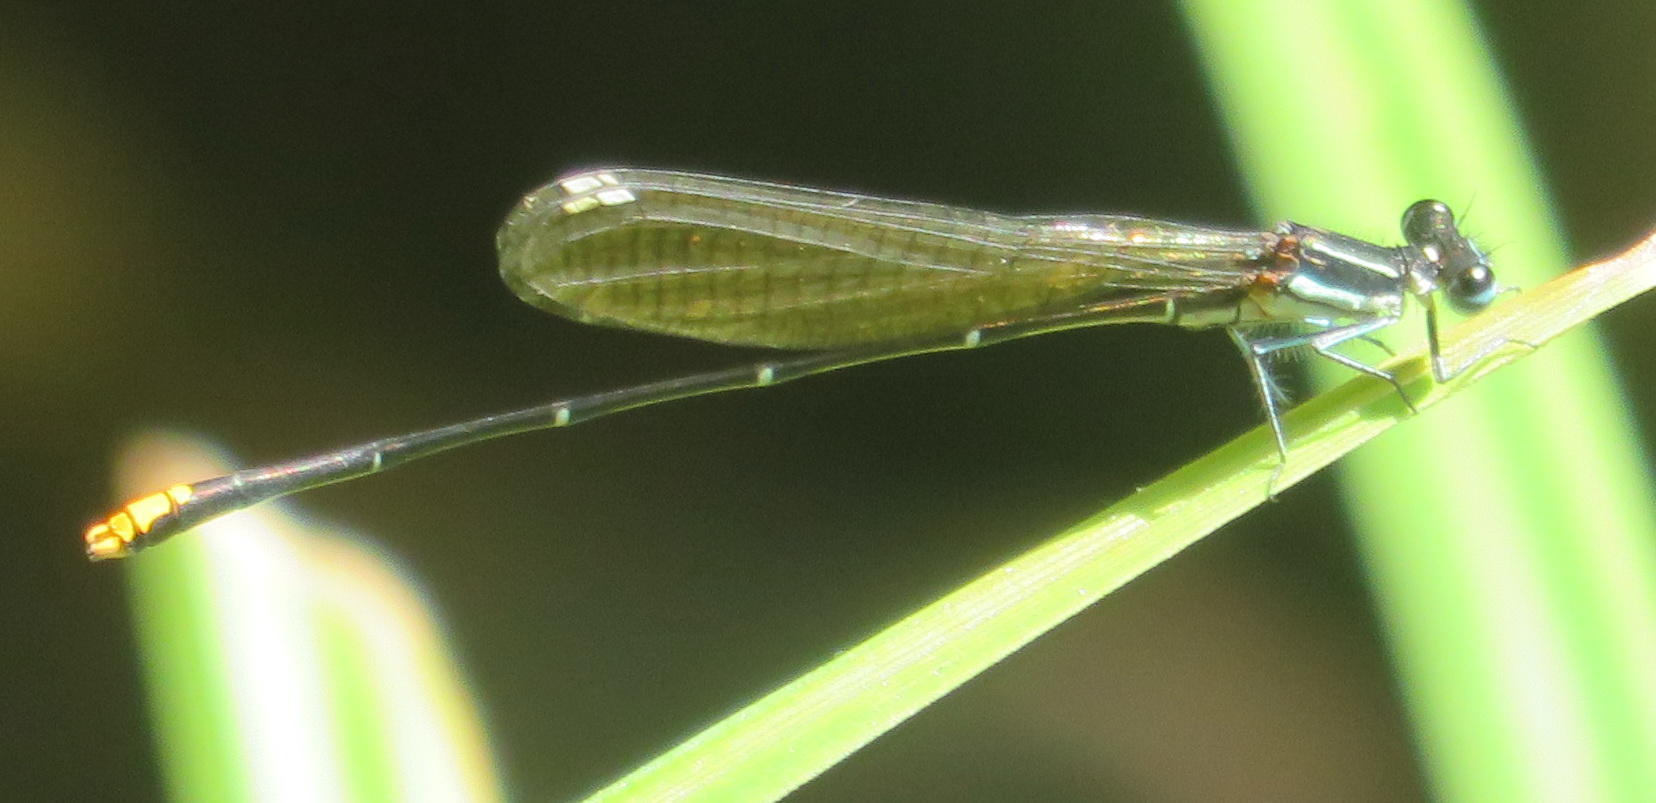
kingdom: Animalia
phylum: Arthropoda
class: Insecta
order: Odonata
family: Platycnemididae
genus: Allocnemis
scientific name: Allocnemis leucosticta
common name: Goldtail
